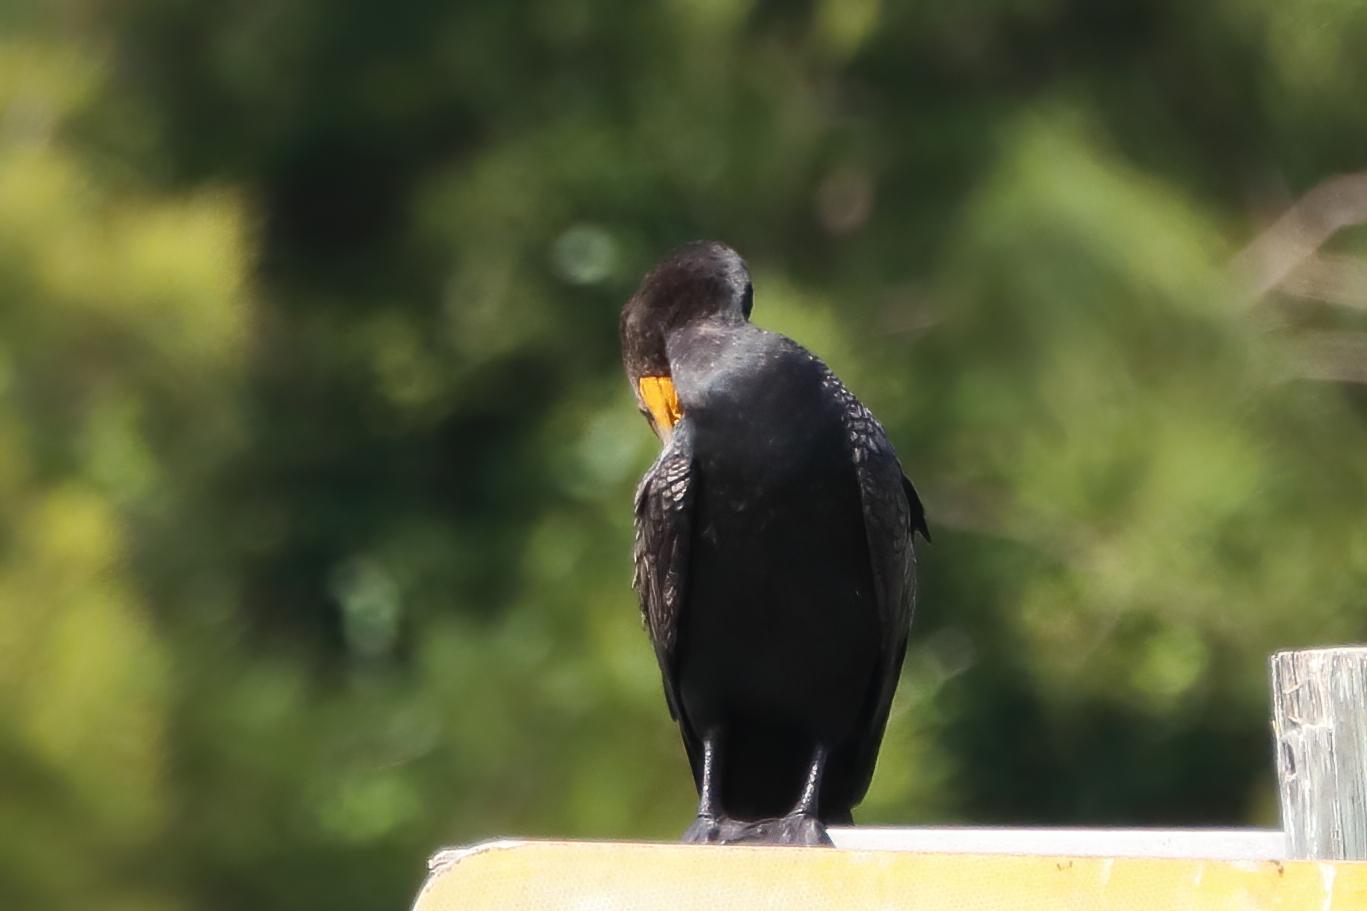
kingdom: Animalia
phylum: Chordata
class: Aves
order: Suliformes
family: Phalacrocoracidae
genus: Phalacrocorax
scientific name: Phalacrocorax auritus
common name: Double-crested cormorant
